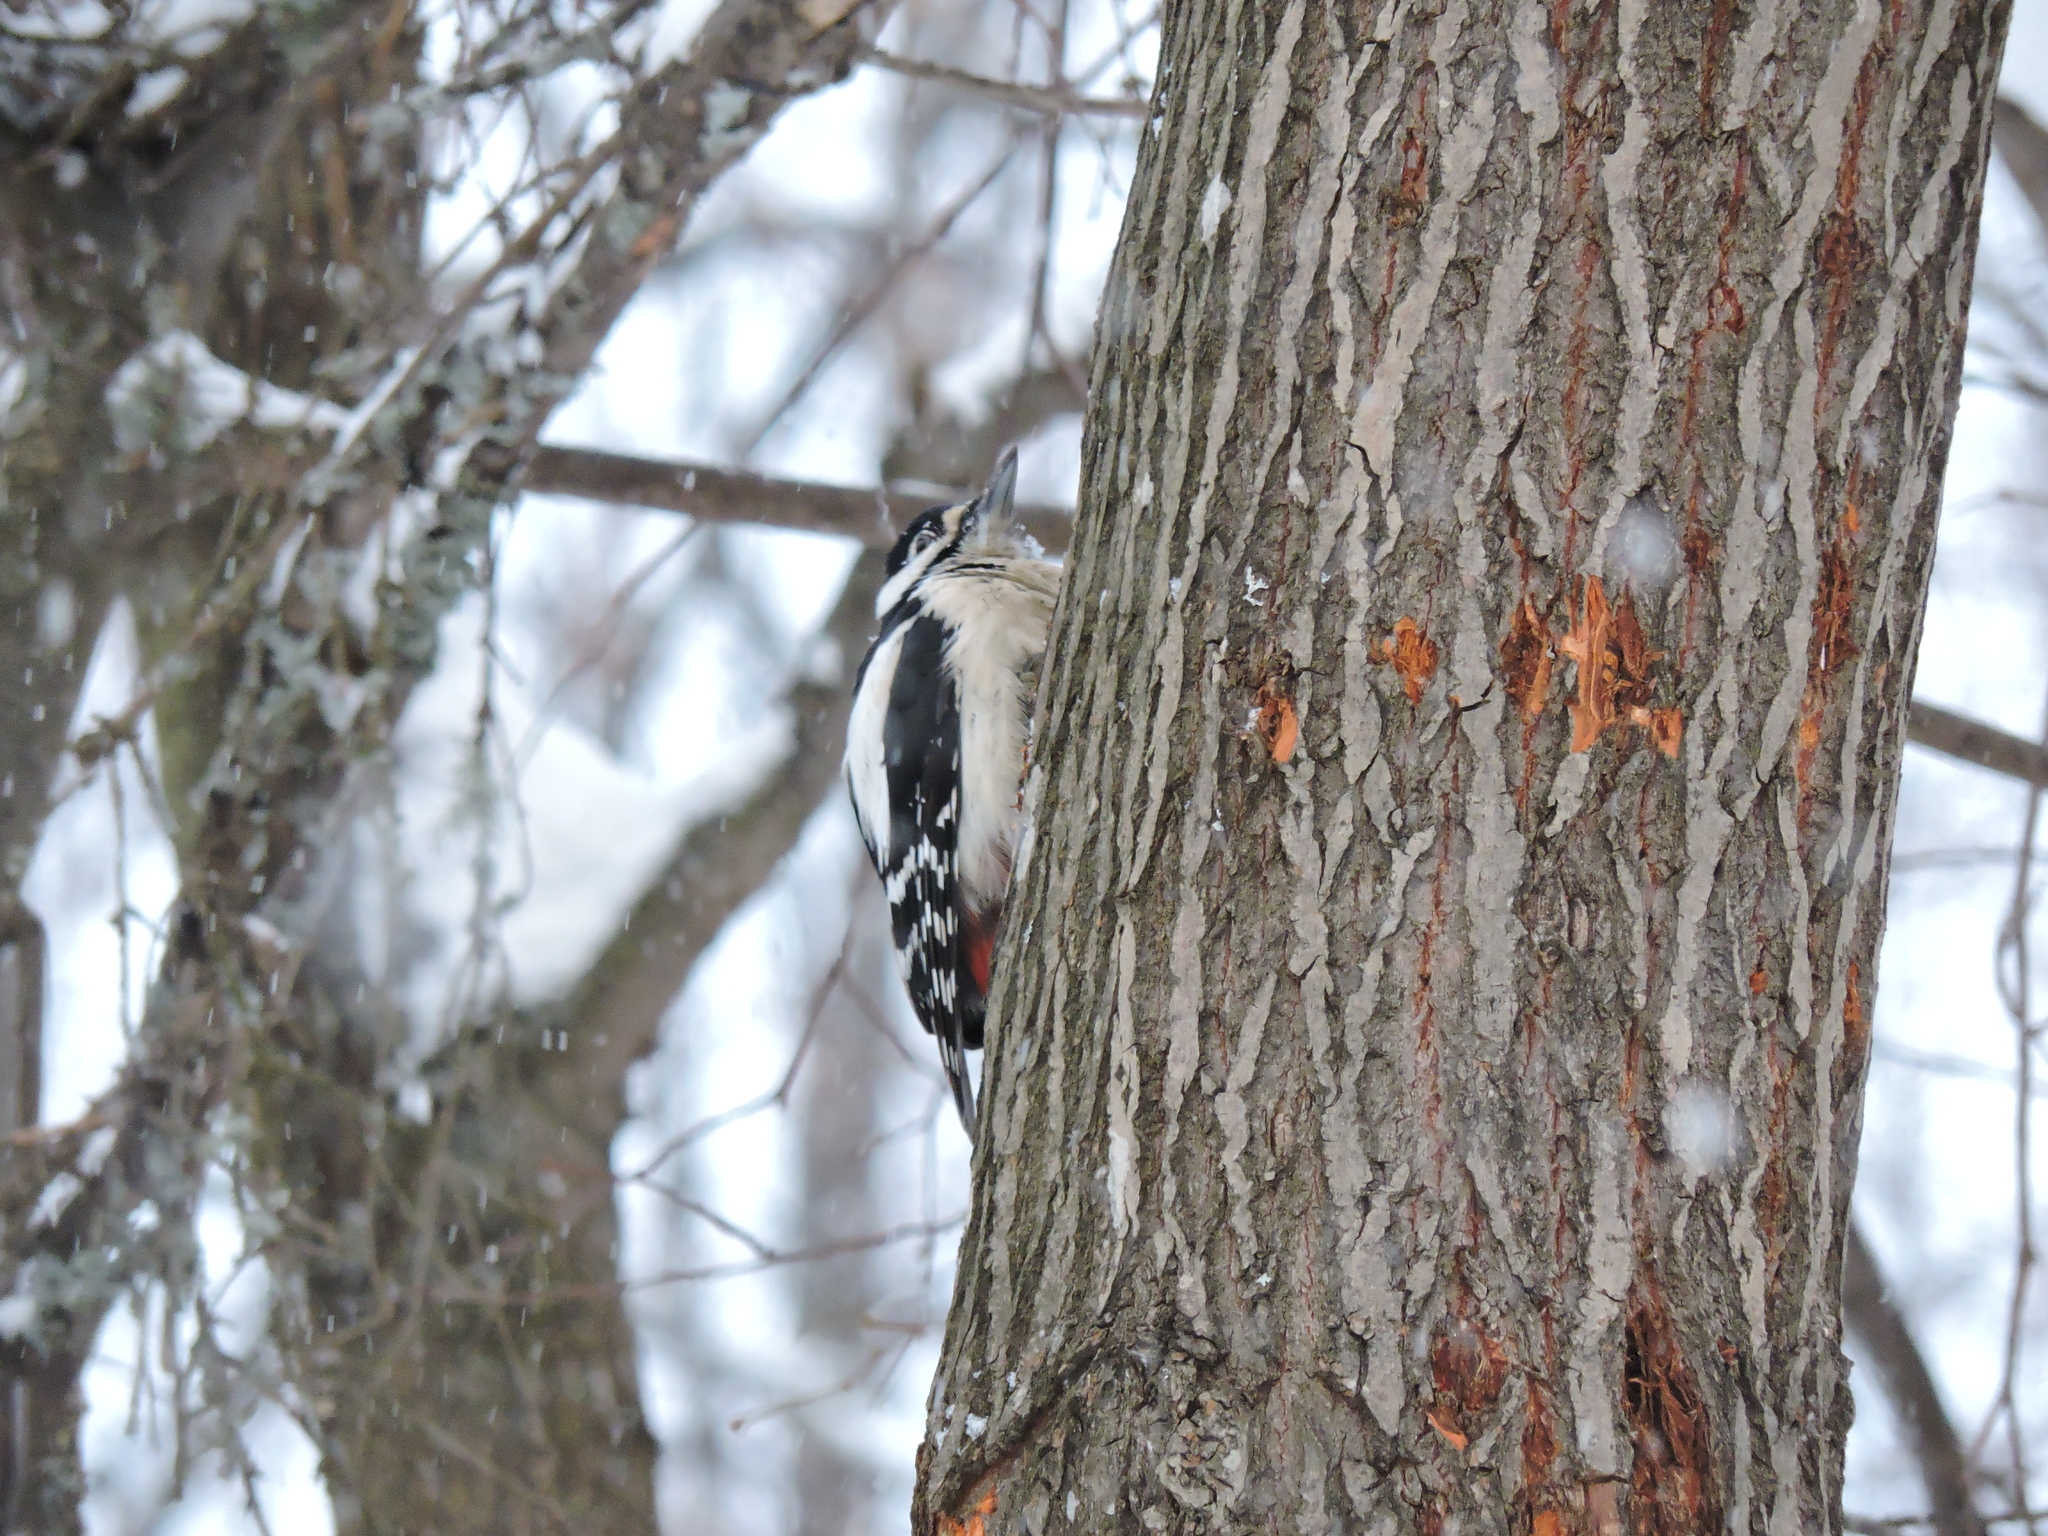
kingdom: Animalia
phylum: Chordata
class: Aves
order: Piciformes
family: Picidae
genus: Dendrocopos
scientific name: Dendrocopos major
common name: Great spotted woodpecker
